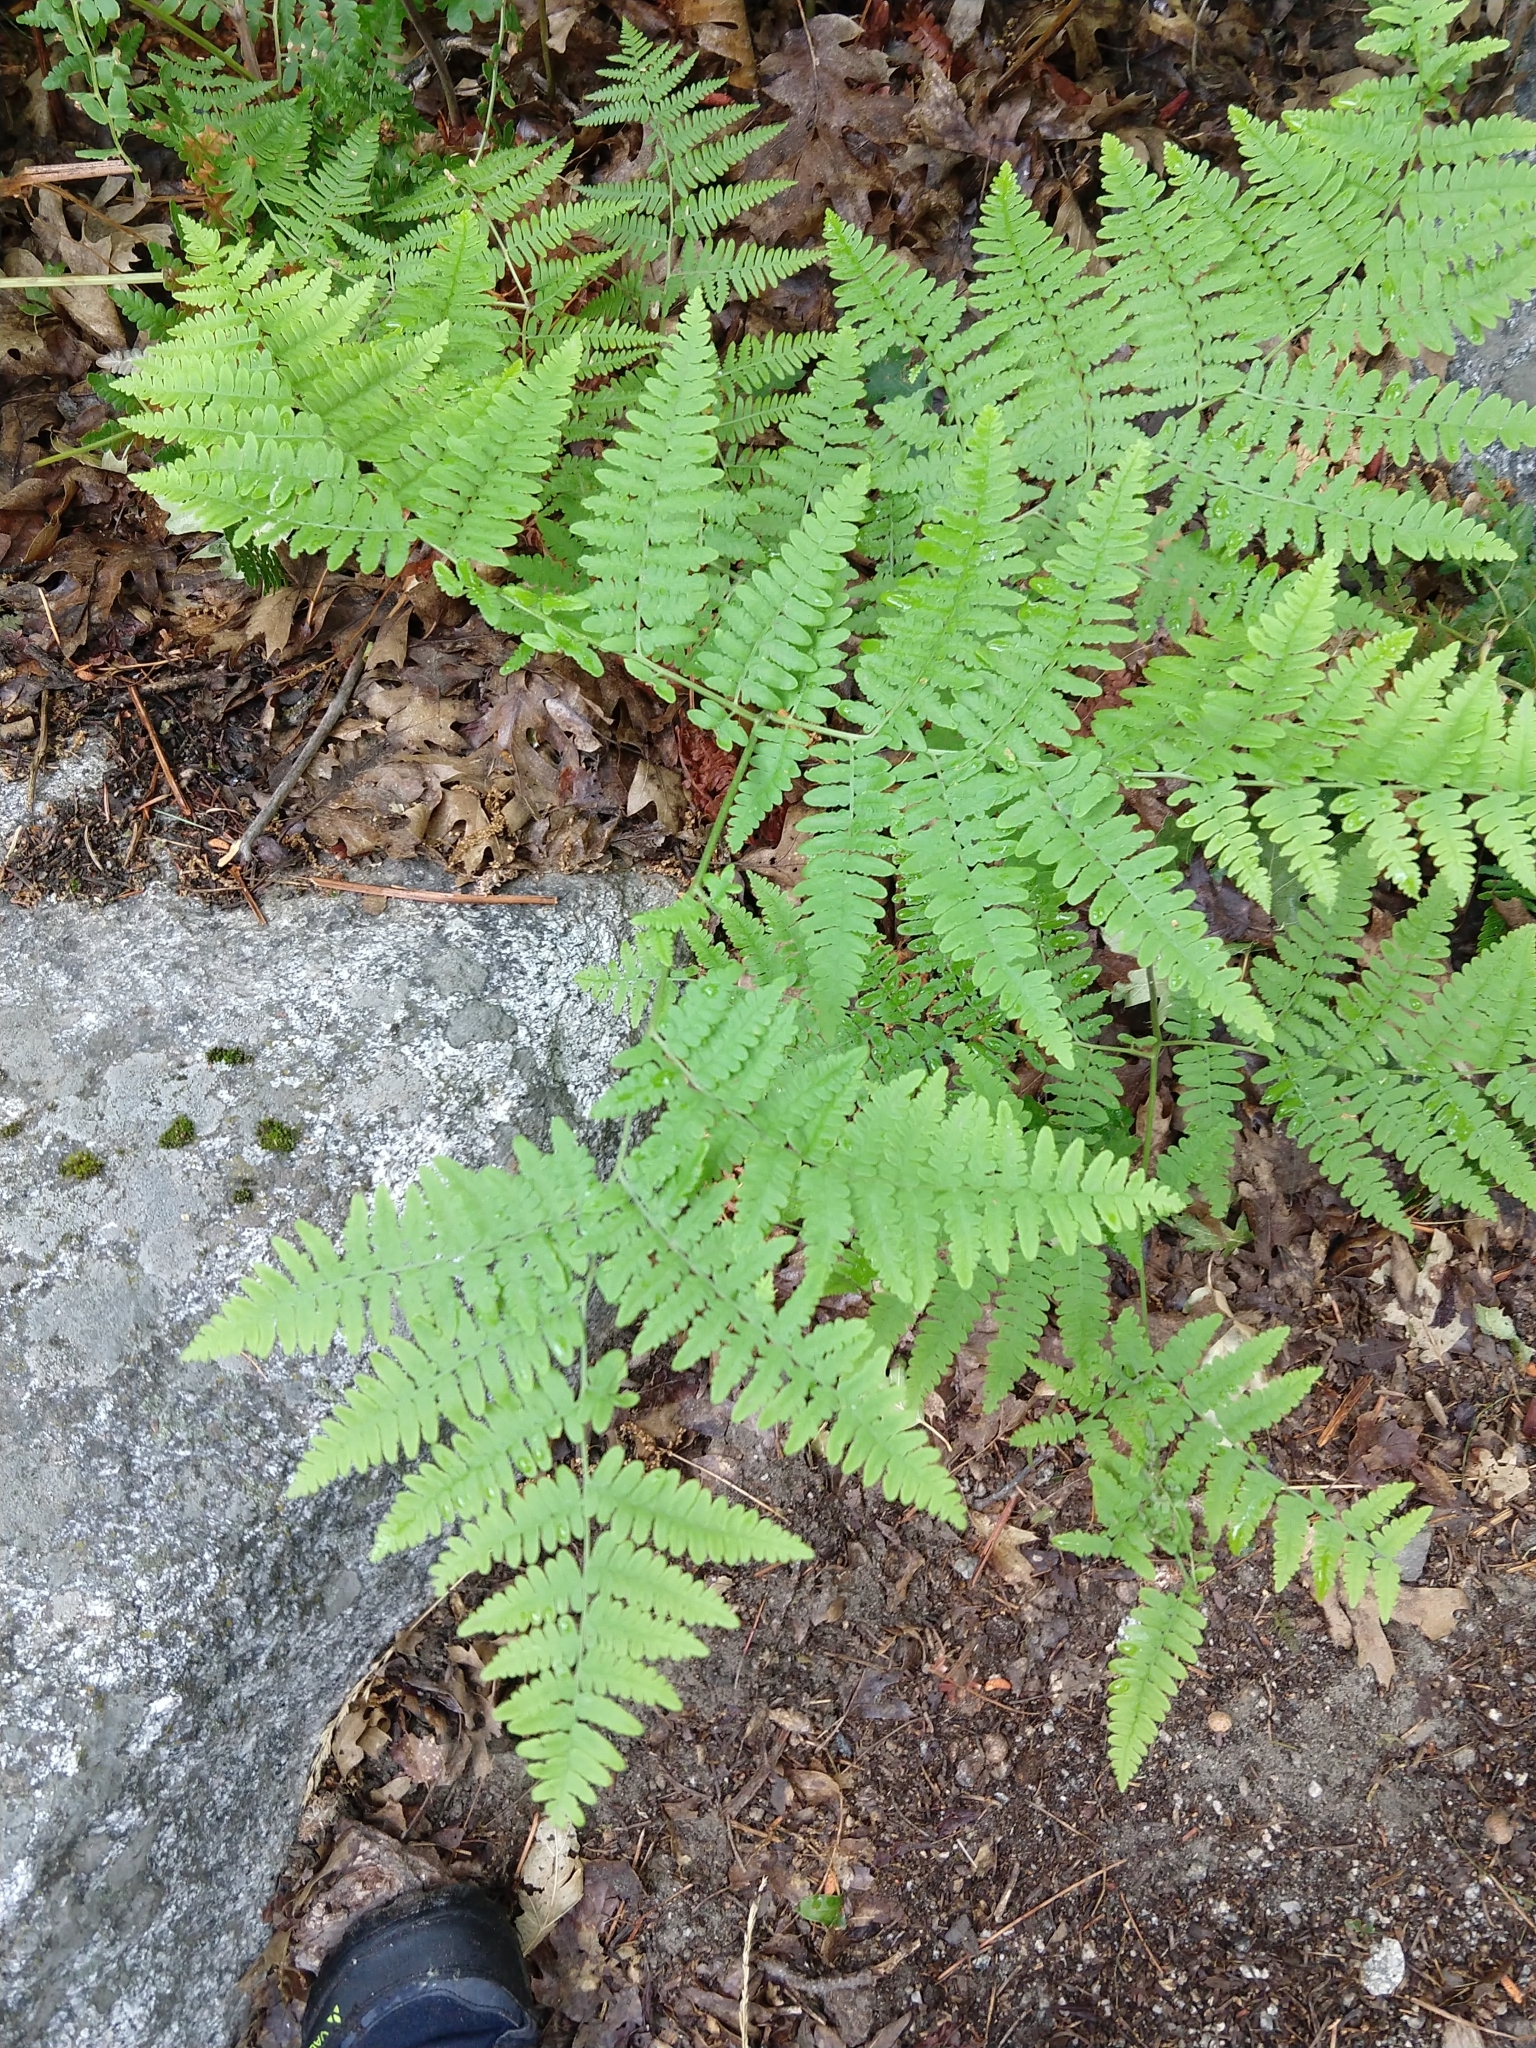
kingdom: Plantae
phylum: Tracheophyta
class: Polypodiopsida
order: Polypodiales
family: Dennstaedtiaceae
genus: Pteridium
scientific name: Pteridium aquilinum
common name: Bracken
